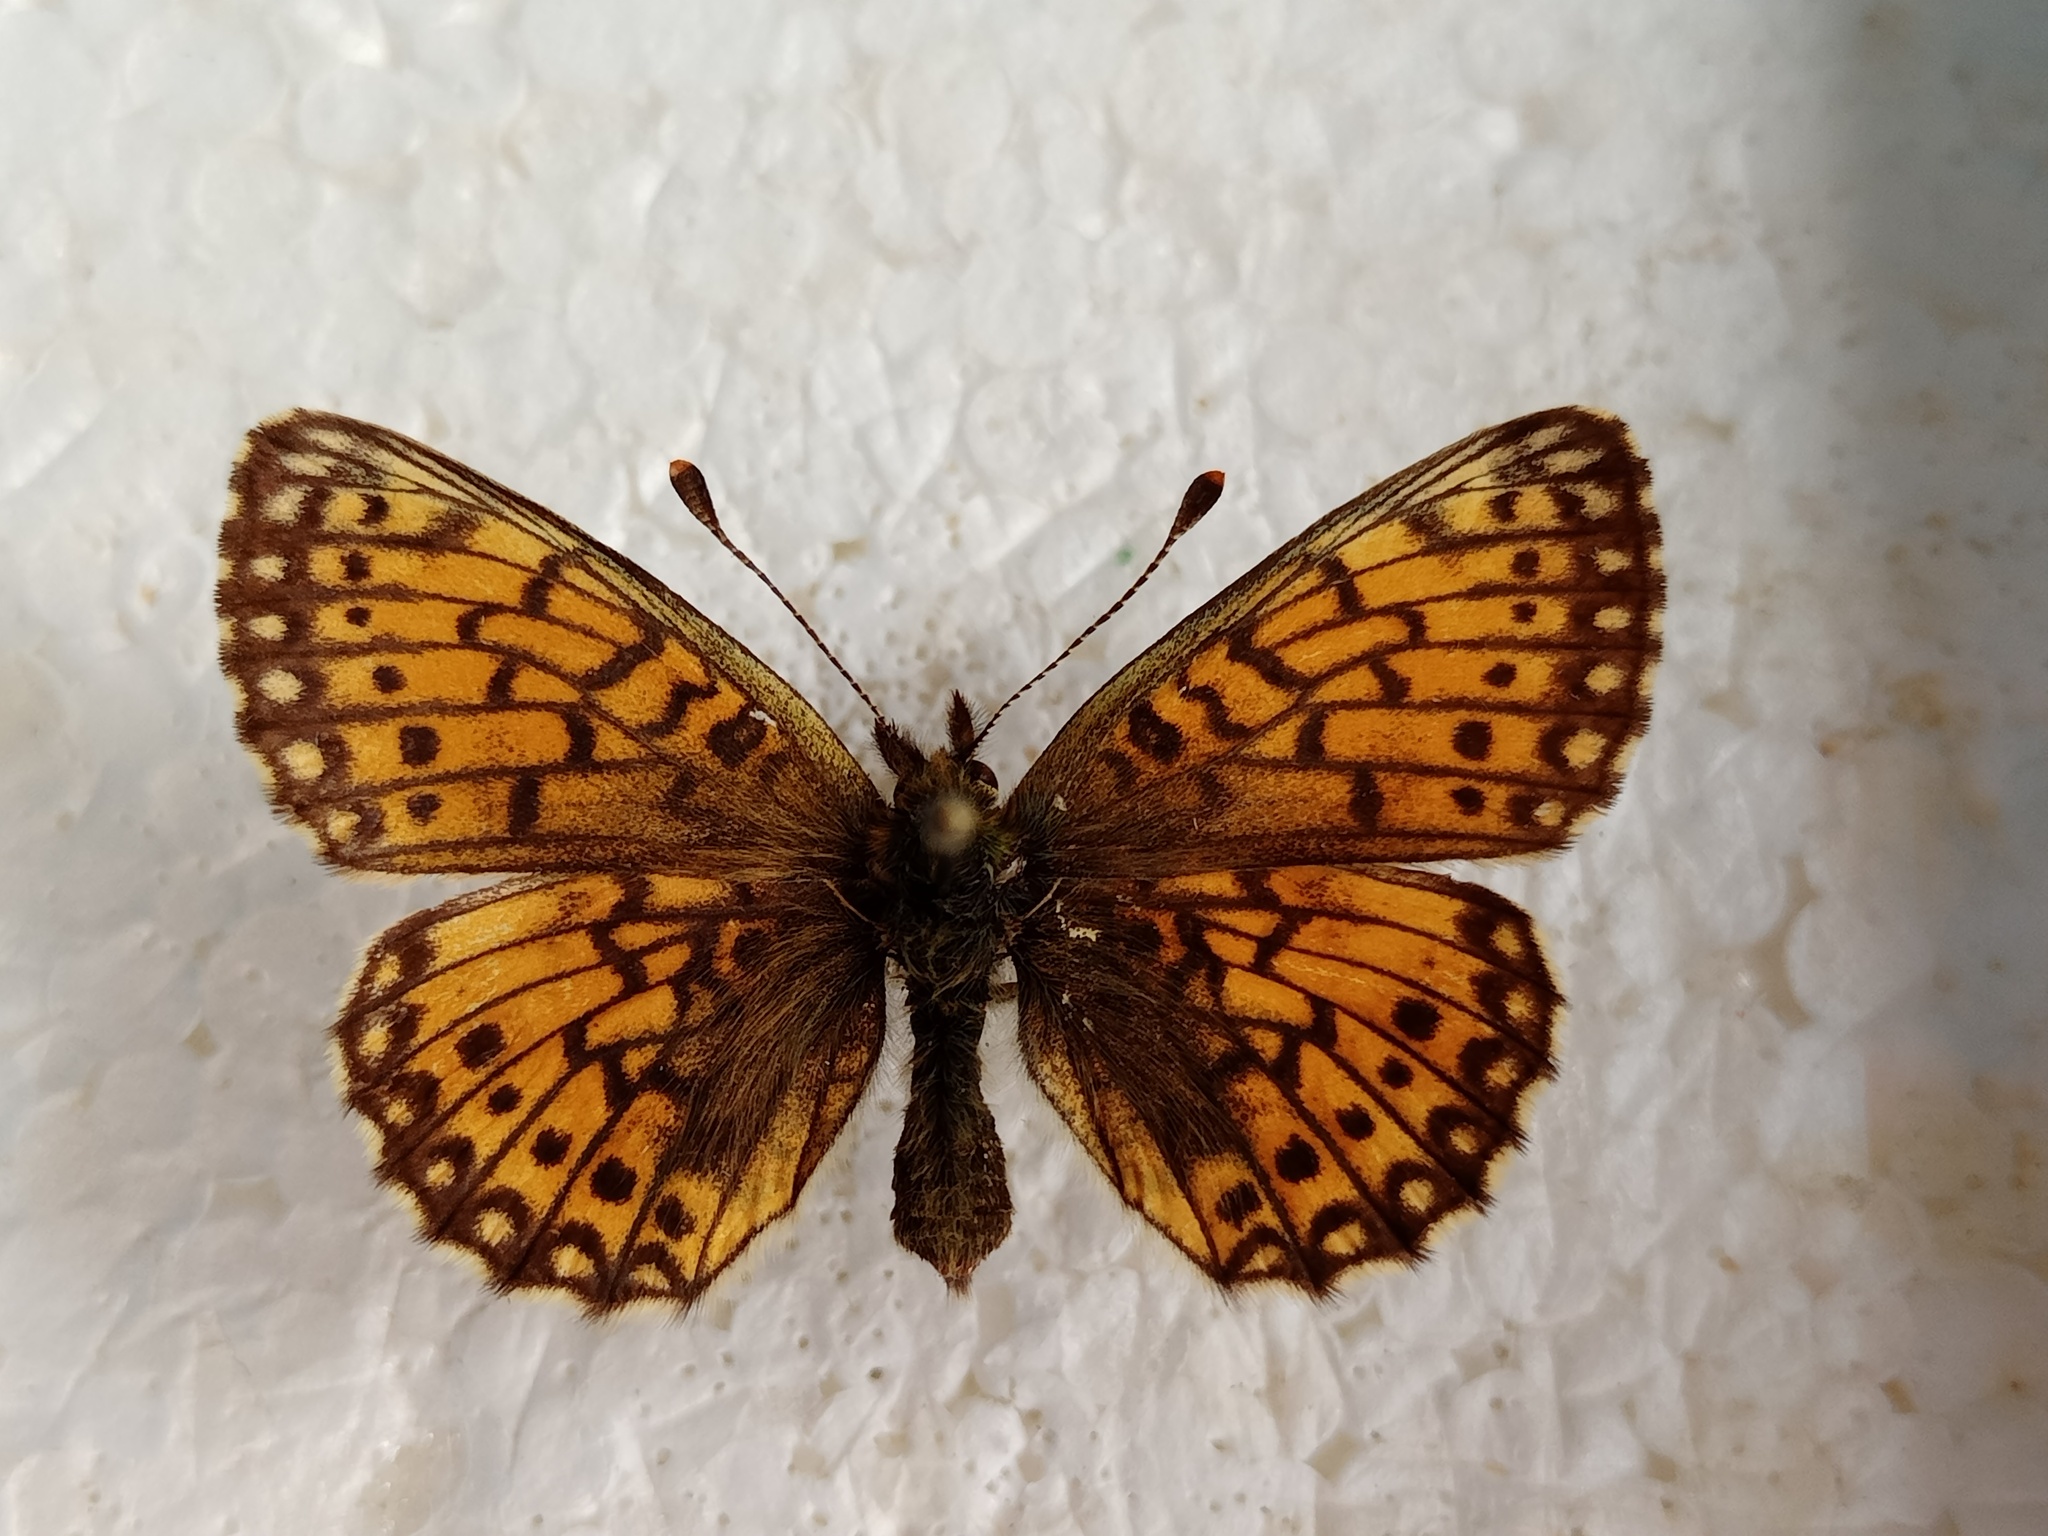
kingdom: Animalia
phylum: Arthropoda
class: Insecta
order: Lepidoptera
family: Nymphalidae
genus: Boloria
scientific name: Boloria selene
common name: Small pearl-bordered fritillary
